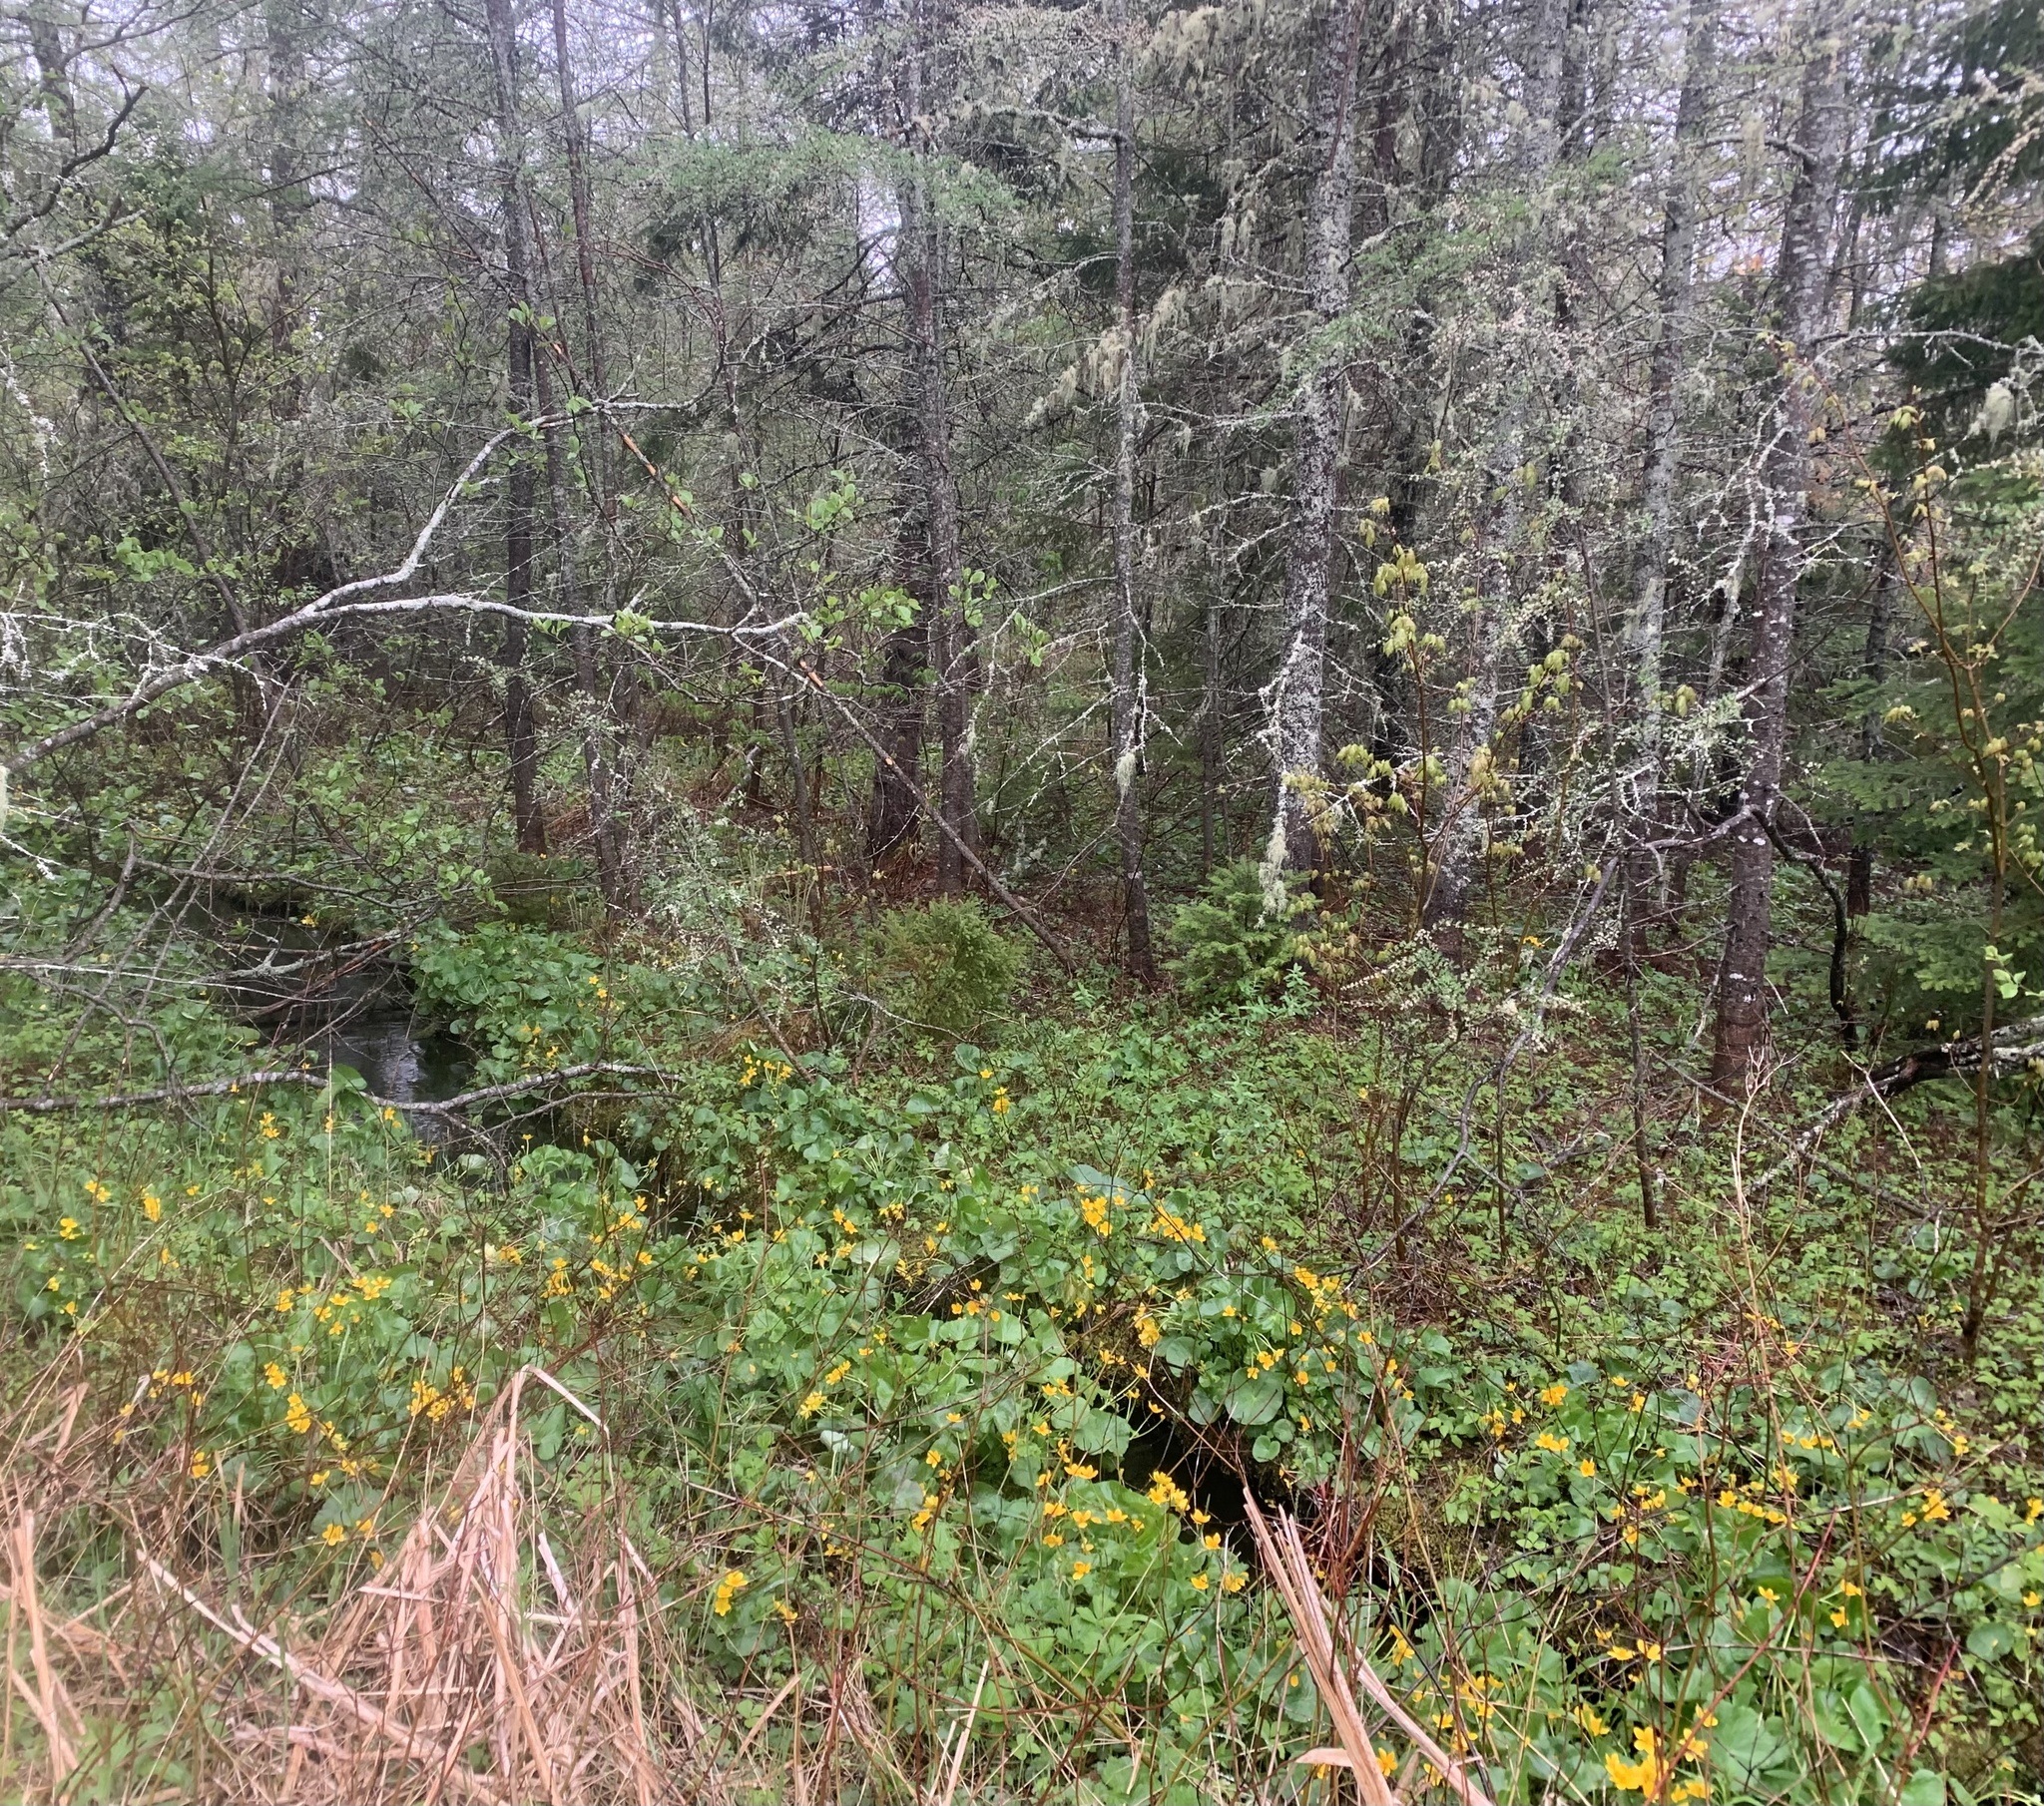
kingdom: Plantae
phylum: Tracheophyta
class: Magnoliopsida
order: Ranunculales
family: Ranunculaceae
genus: Caltha
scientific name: Caltha palustris
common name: Marsh marigold
